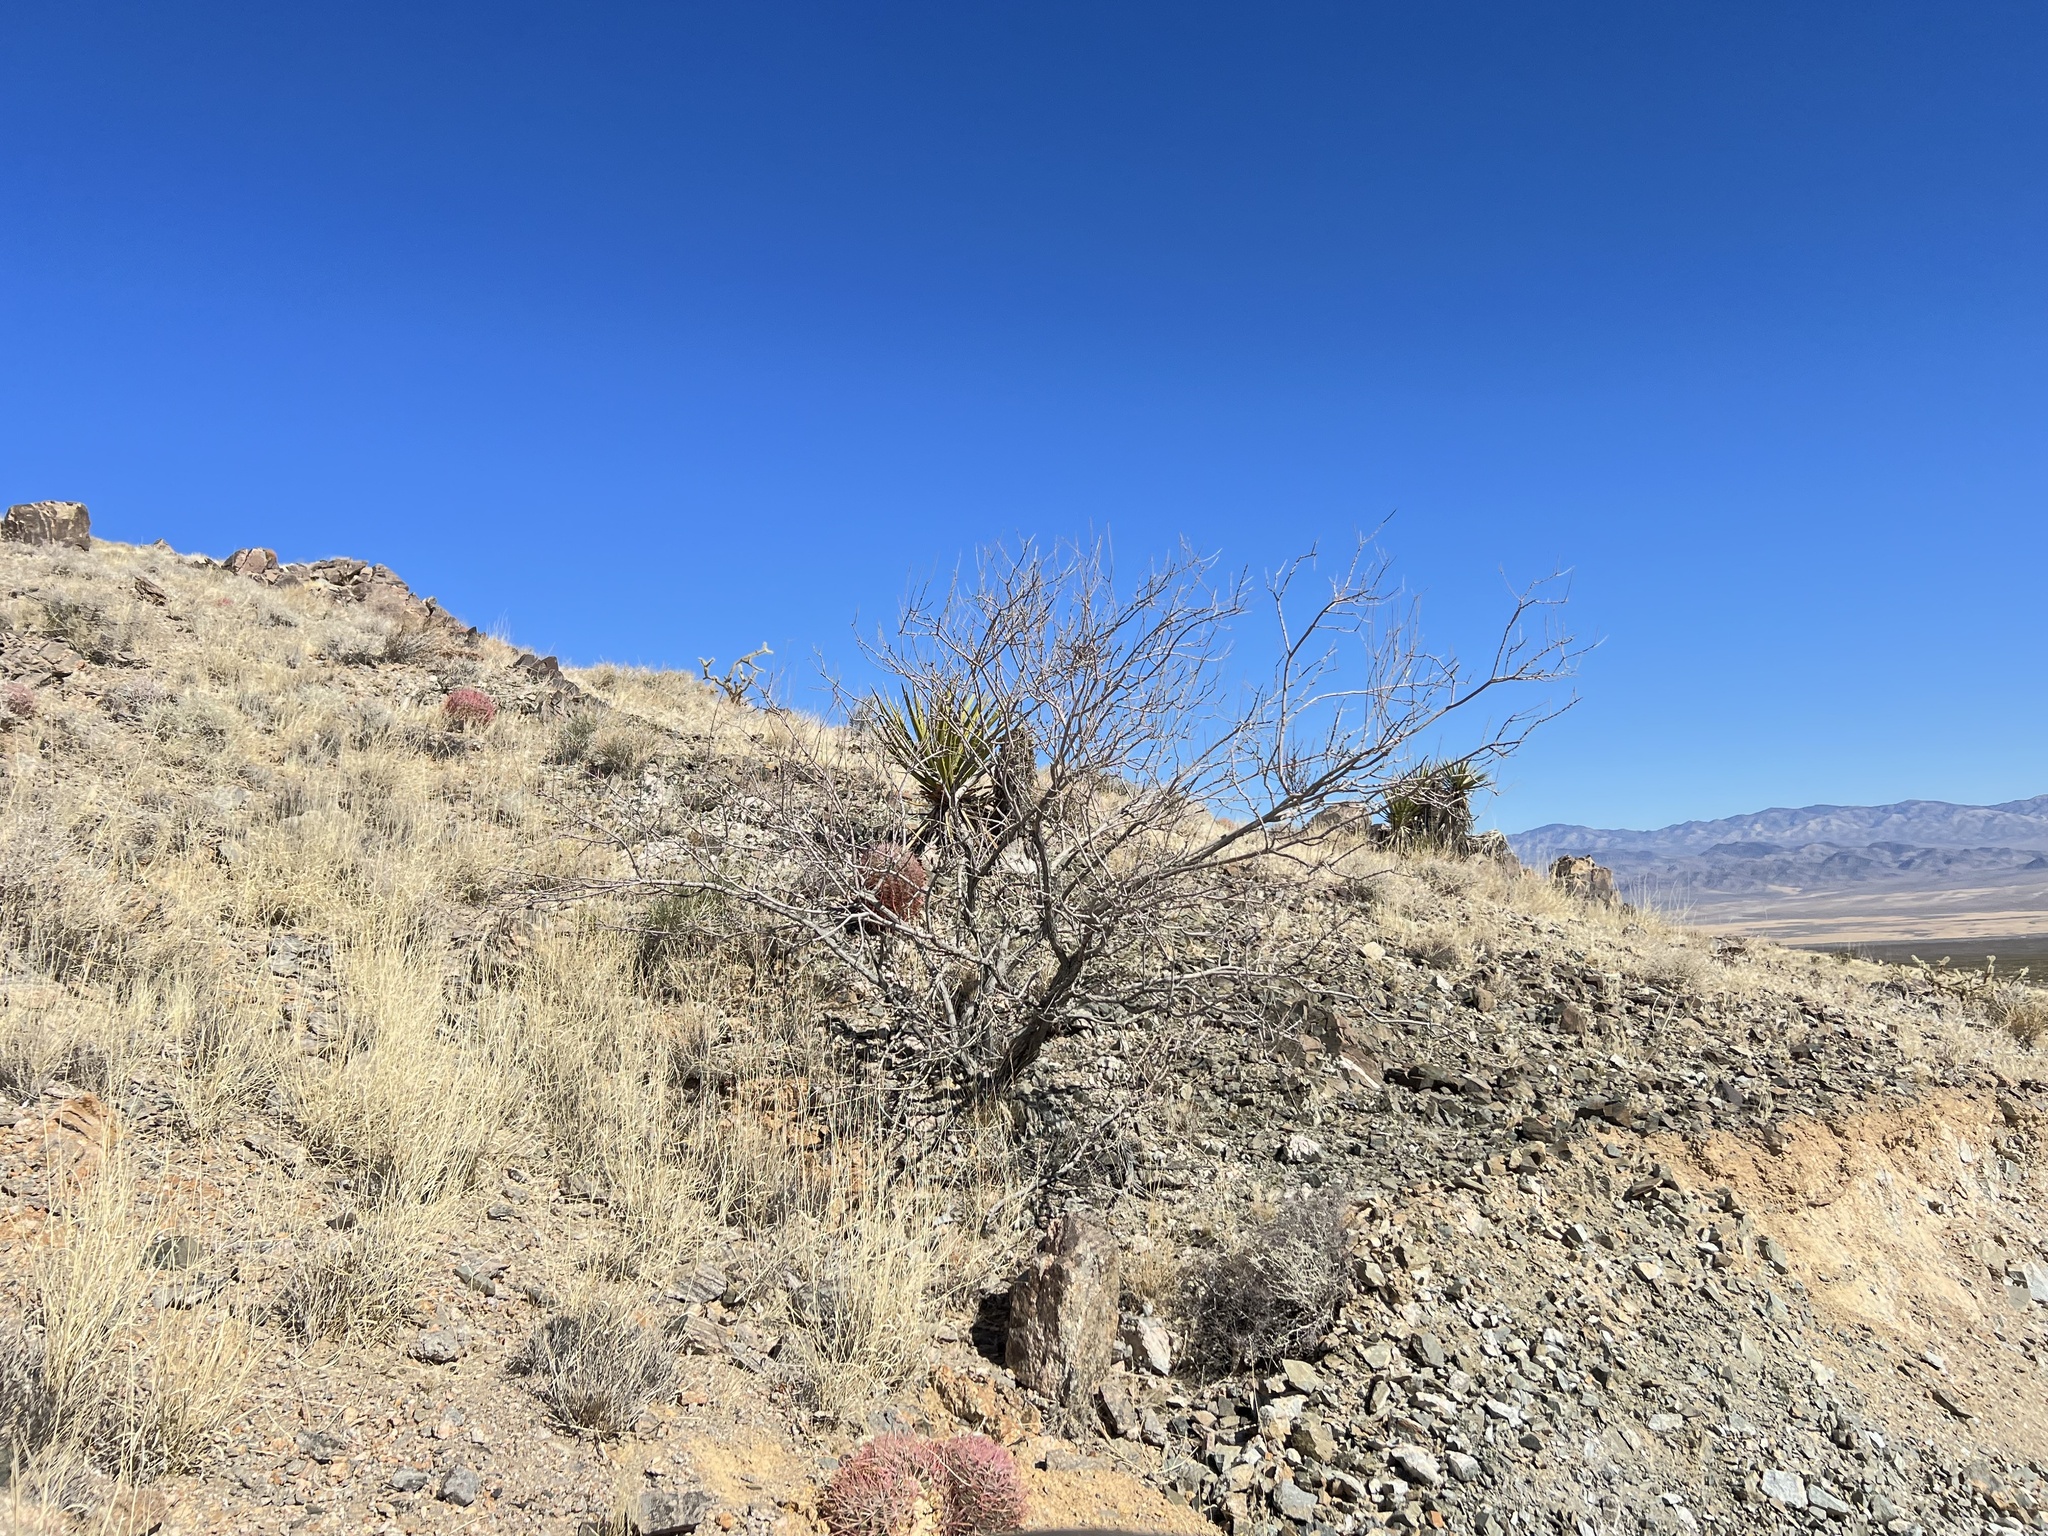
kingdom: Plantae
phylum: Tracheophyta
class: Magnoliopsida
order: Fabales
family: Fabaceae
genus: Senegalia
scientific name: Senegalia greggii
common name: Texas-mimosa
